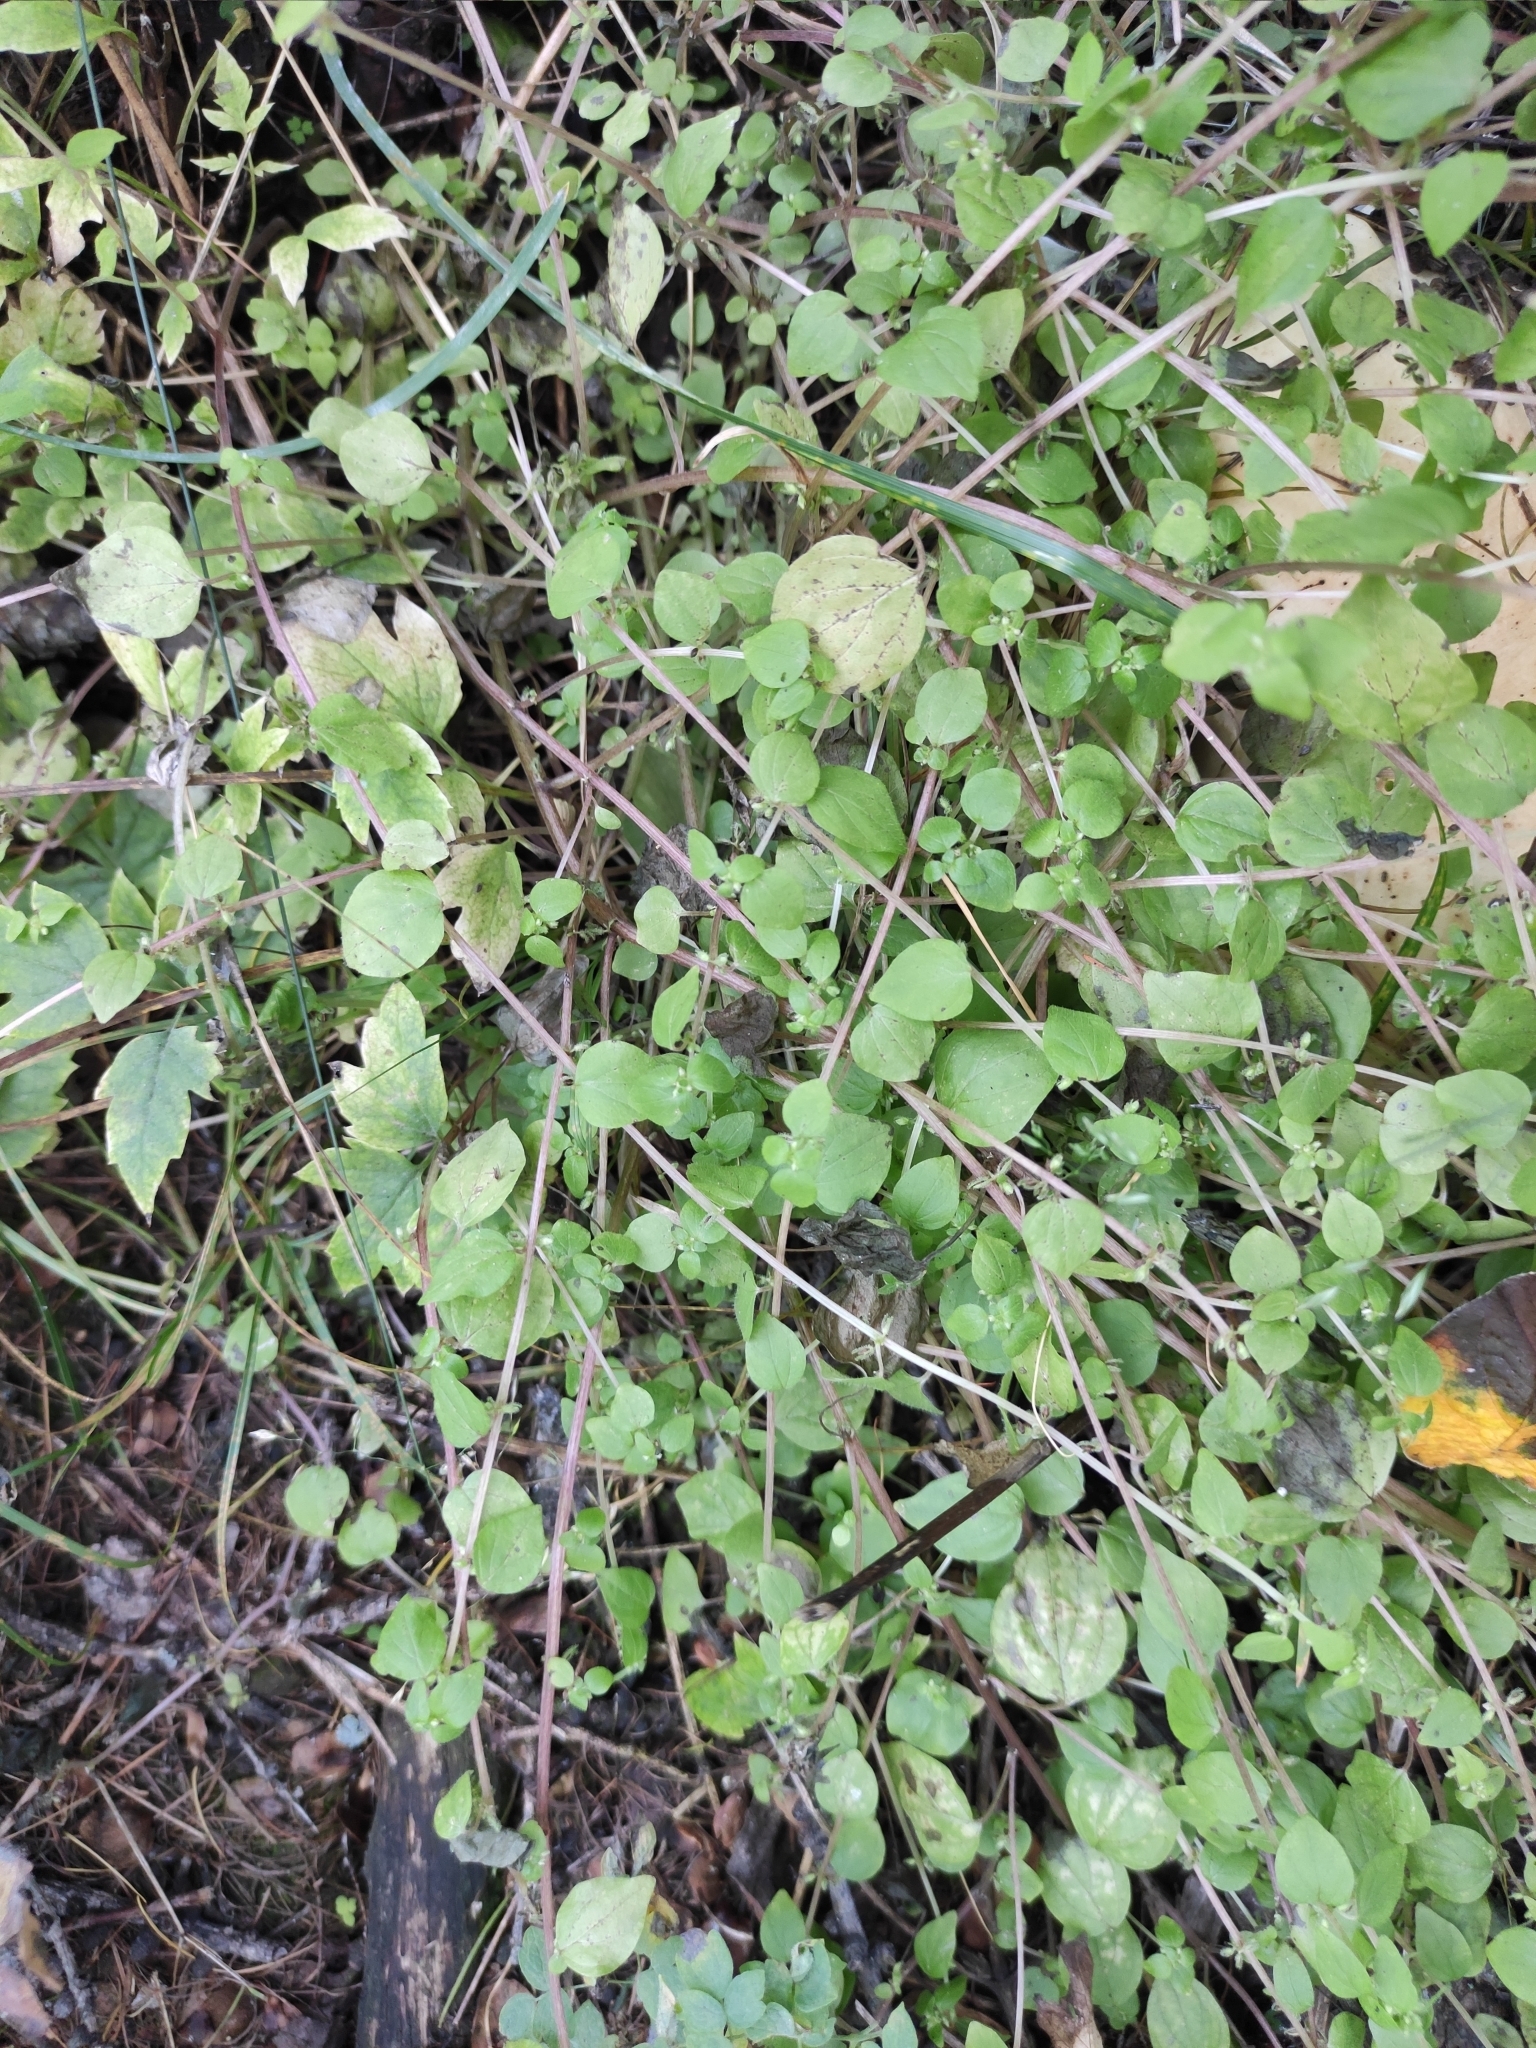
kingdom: Plantae
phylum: Tracheophyta
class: Magnoliopsida
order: Rosales
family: Urticaceae
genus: Parietaria
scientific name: Parietaria micrantha
